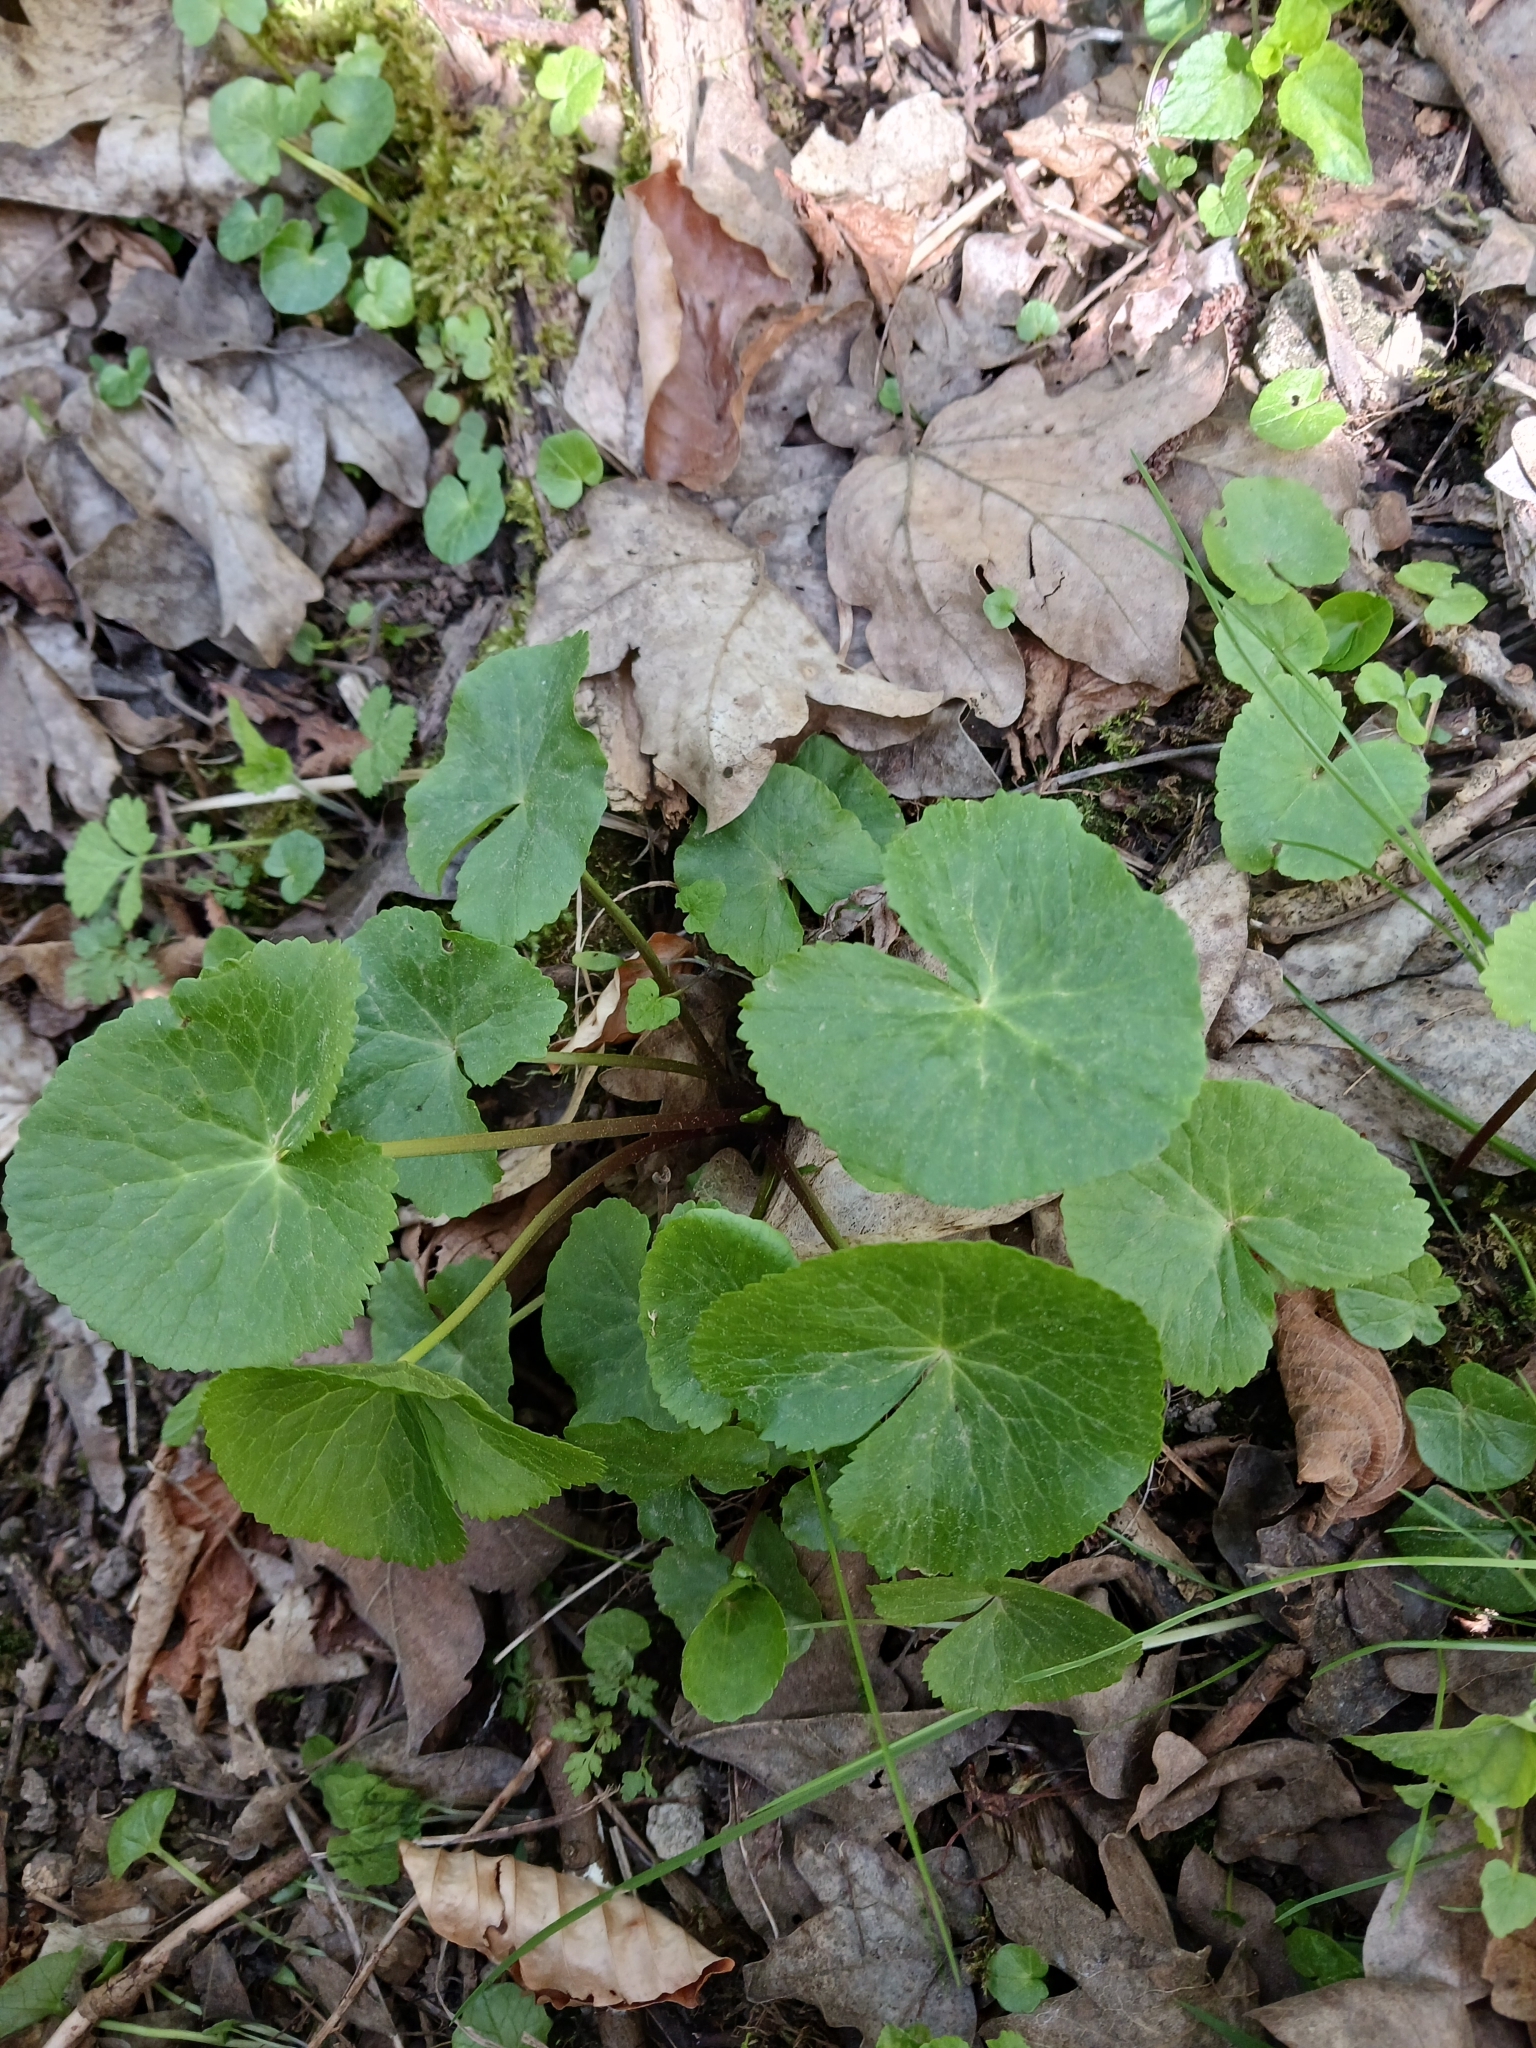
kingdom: Plantae
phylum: Tracheophyta
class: Magnoliopsida
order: Ranunculales
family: Ranunculaceae
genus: Caltha
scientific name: Caltha palustris
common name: Marsh marigold
